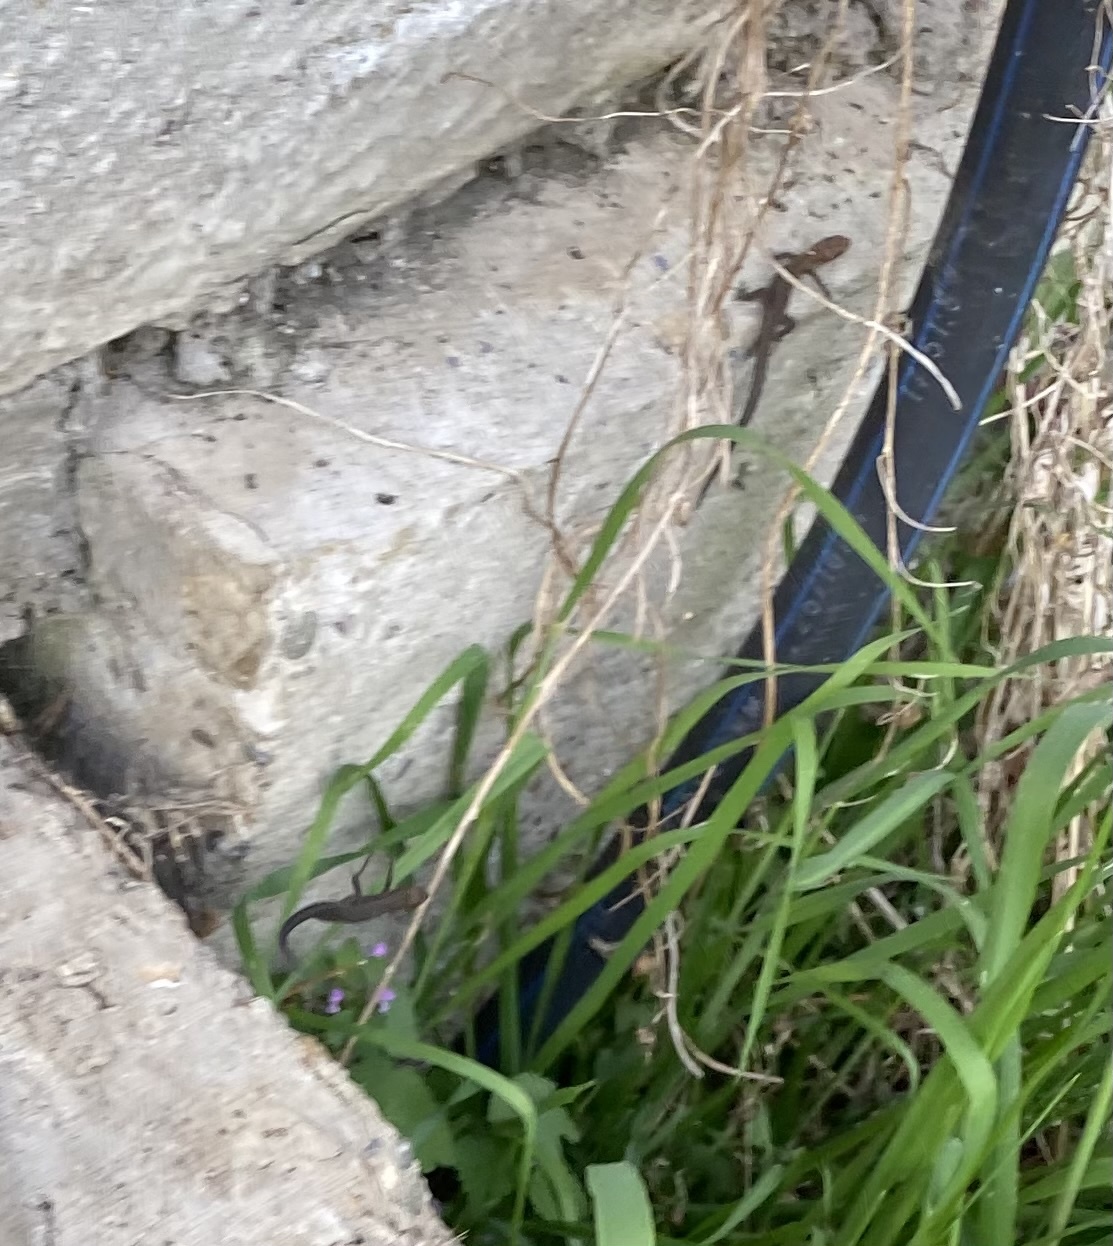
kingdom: Animalia
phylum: Chordata
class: Squamata
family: Lacertidae
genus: Darevskia
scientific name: Darevskia praticola
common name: Meadow lizard
